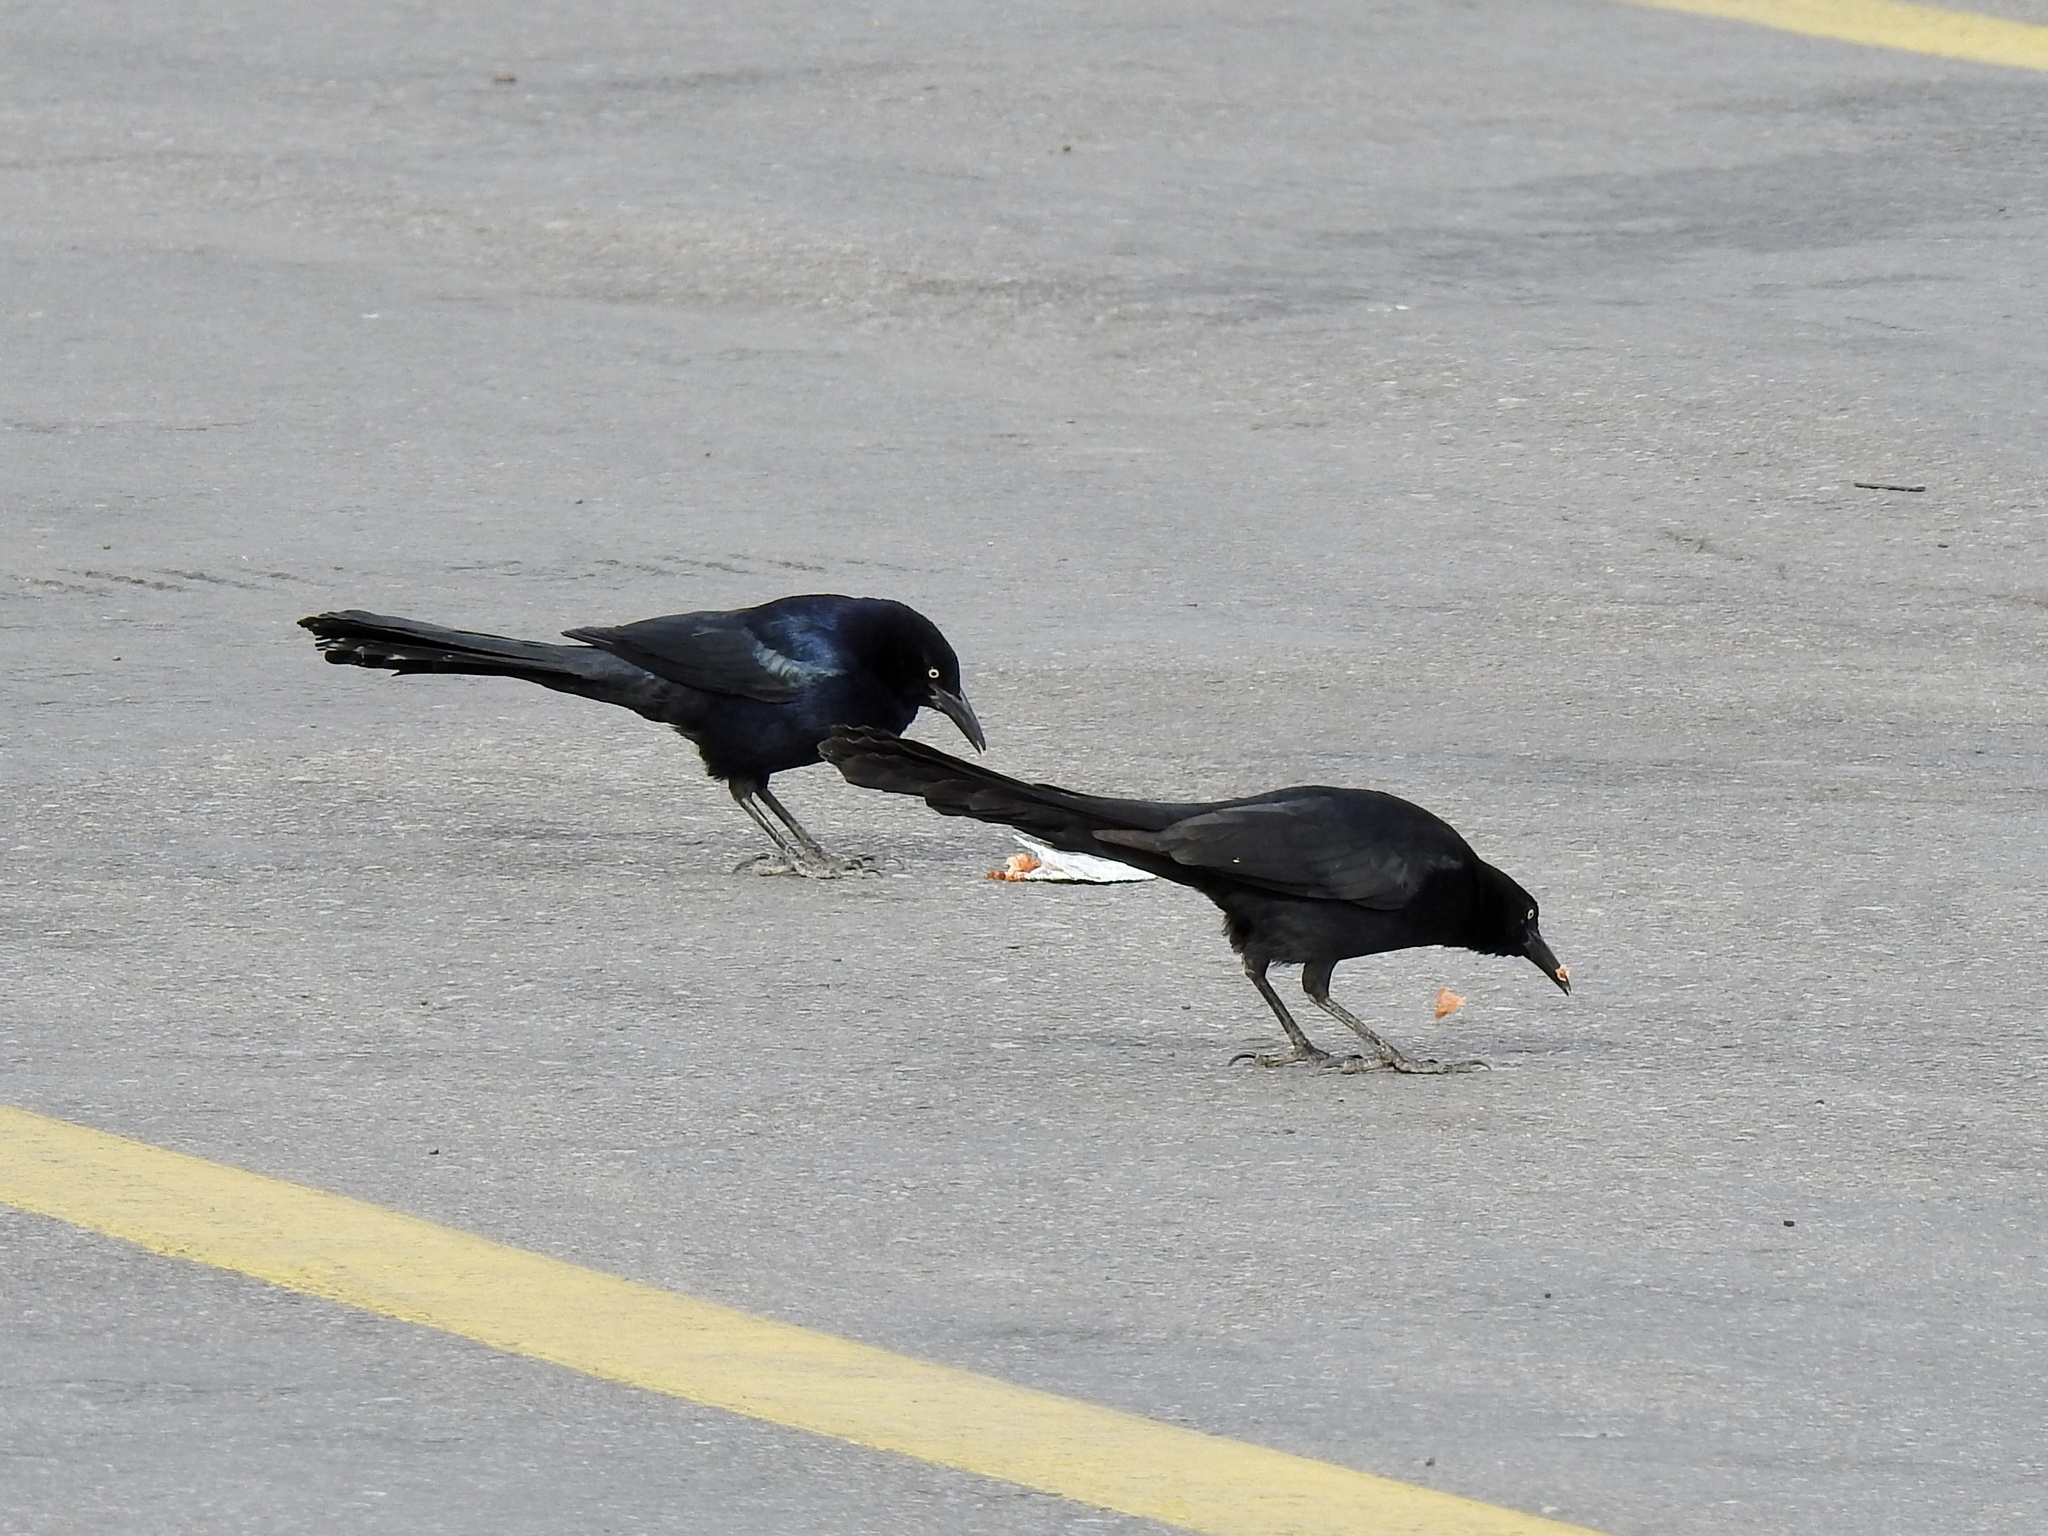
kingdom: Animalia
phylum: Chordata
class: Aves
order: Passeriformes
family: Icteridae
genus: Quiscalus
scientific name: Quiscalus mexicanus
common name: Great-tailed grackle
